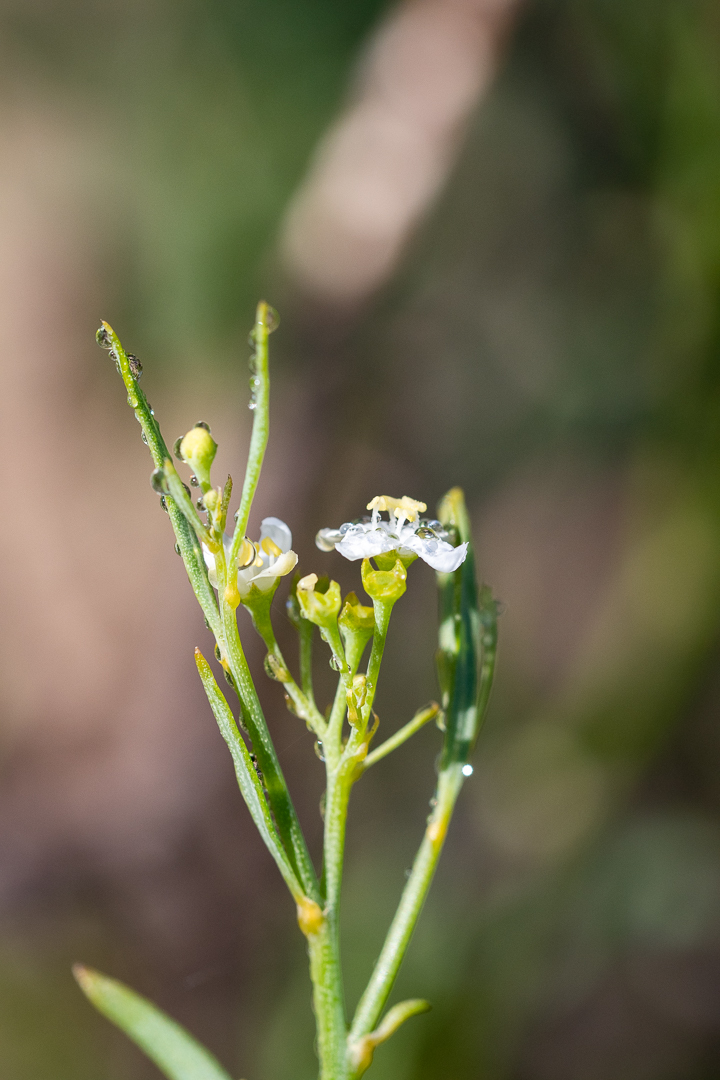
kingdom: Plantae
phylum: Tracheophyta
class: Magnoliopsida
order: Solanales
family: Montiniaceae
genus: Montinia
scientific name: Montinia caryophyllacea
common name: Wild clove-bush
